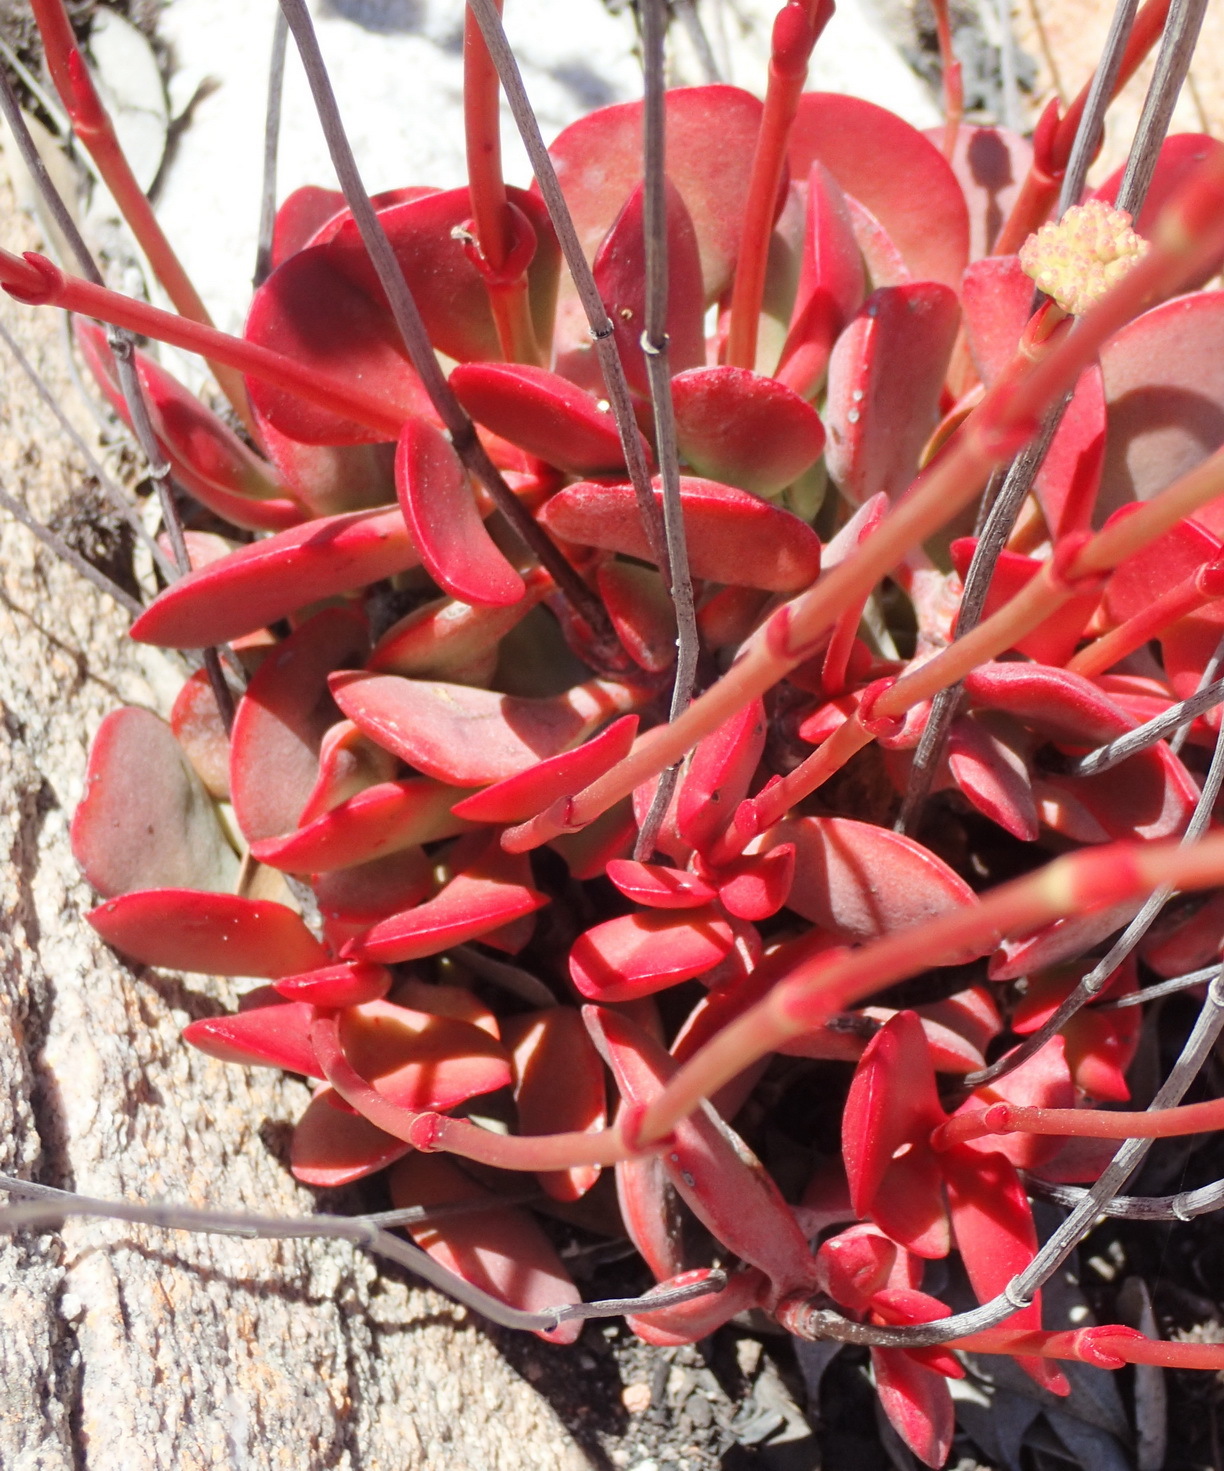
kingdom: Plantae
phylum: Tracheophyta
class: Magnoliopsida
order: Saxifragales
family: Crassulaceae
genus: Crassula
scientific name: Crassula atropurpurea
